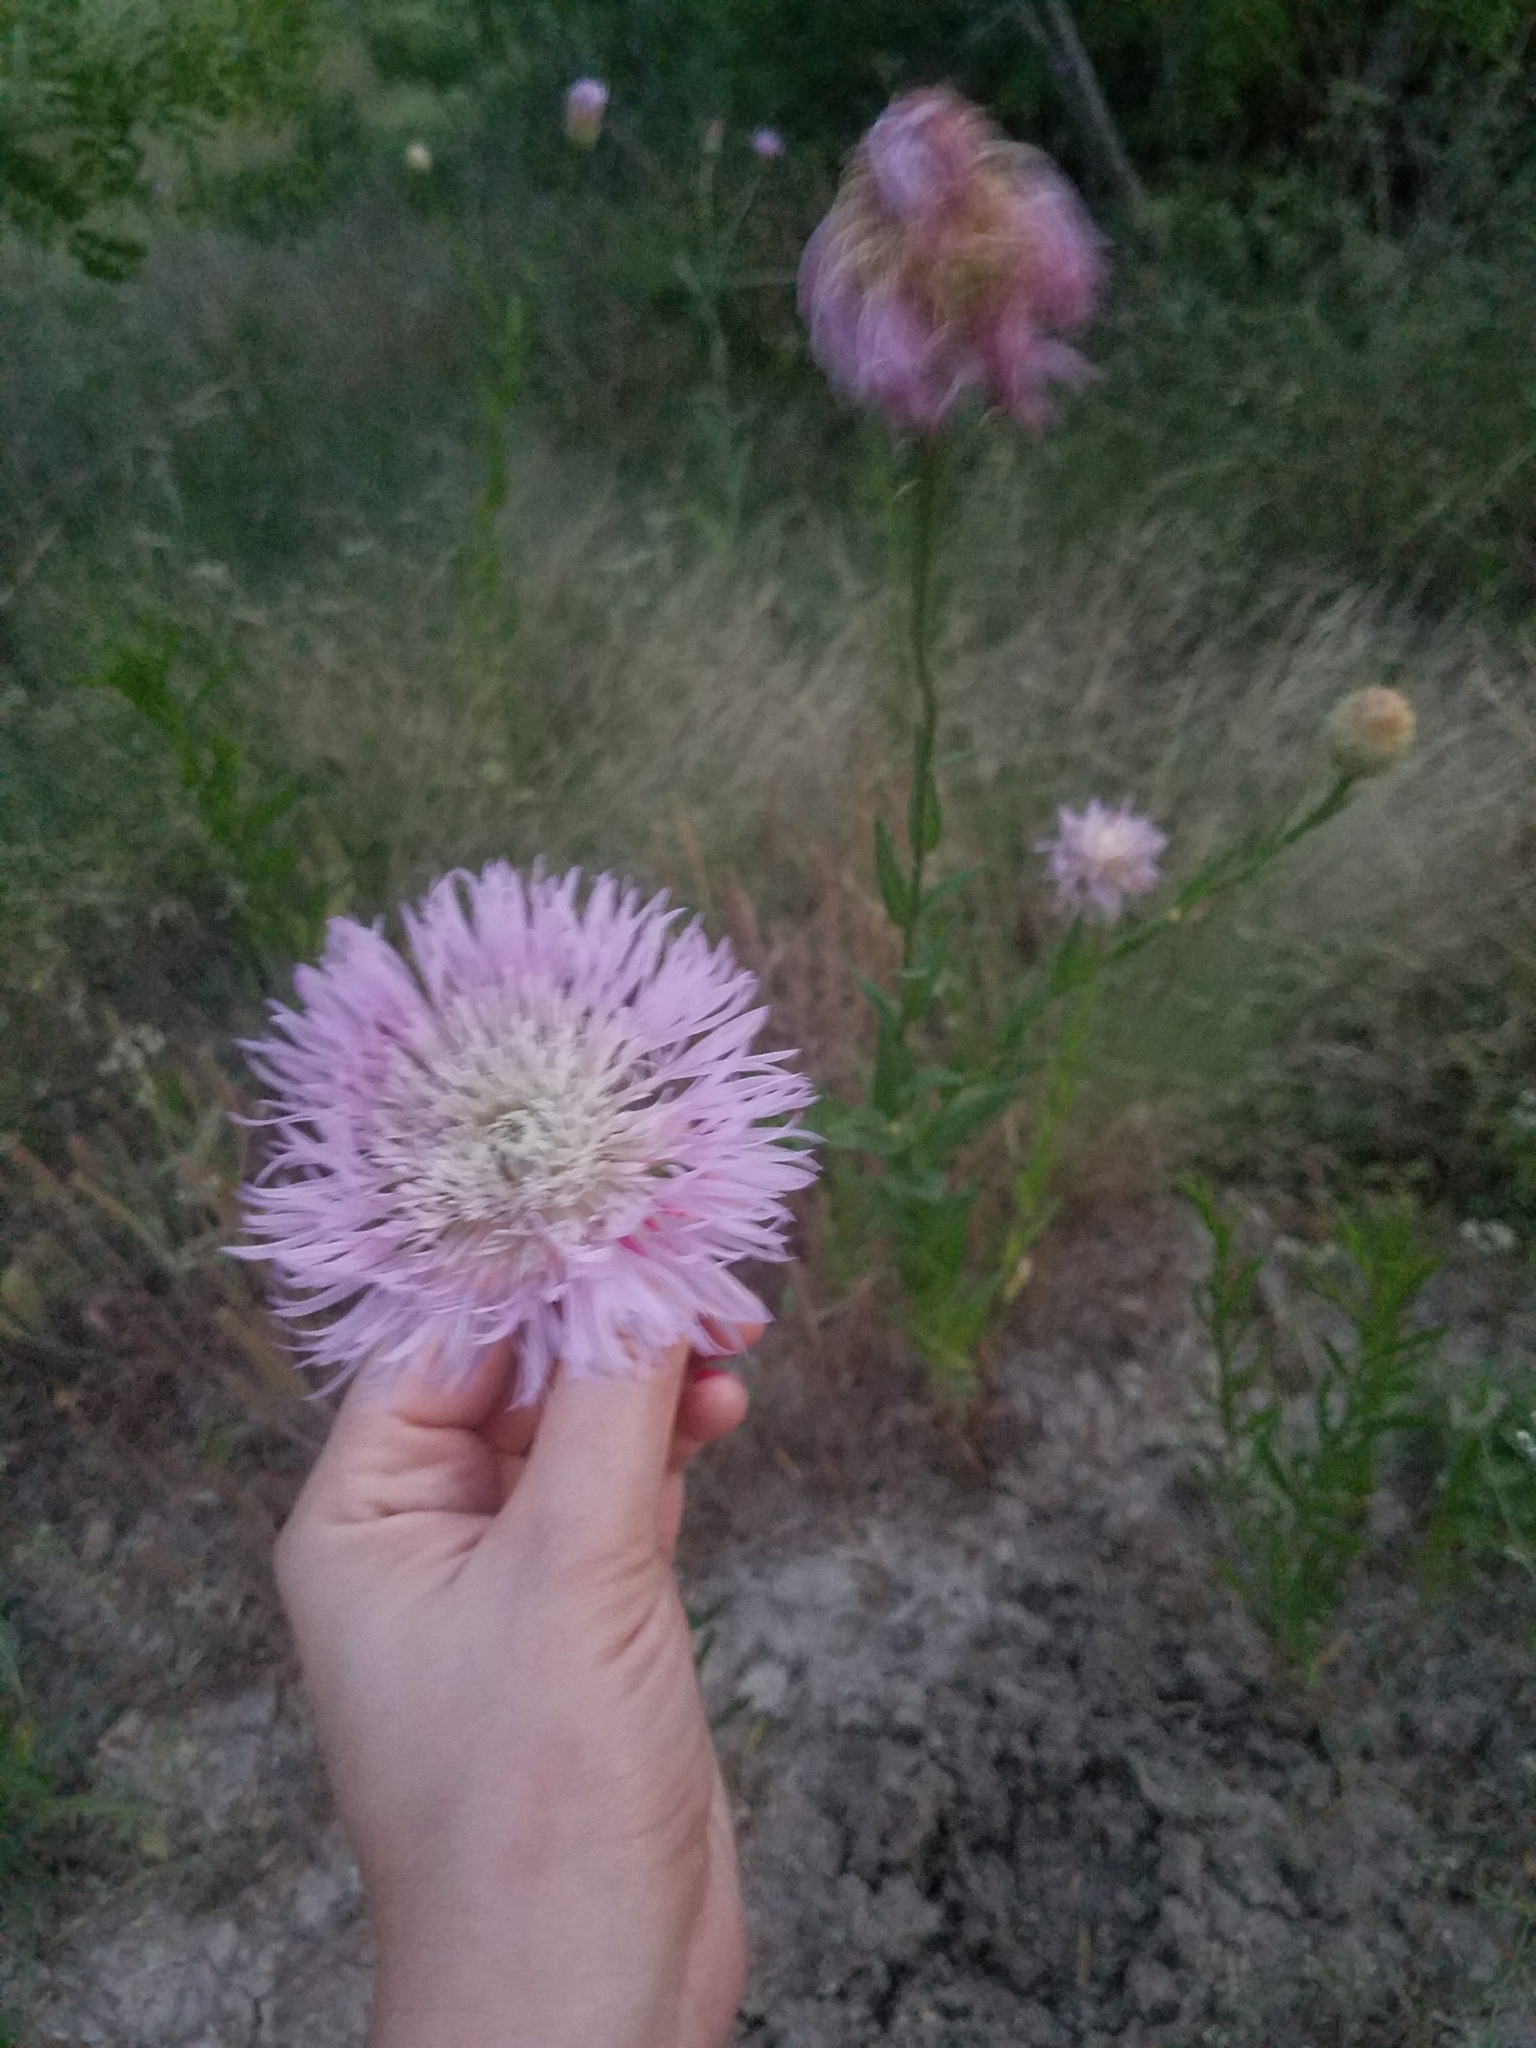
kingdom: Plantae
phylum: Tracheophyta
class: Magnoliopsida
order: Asterales
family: Asteraceae
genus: Plectocephalus
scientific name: Plectocephalus americanus
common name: American basket-flower
